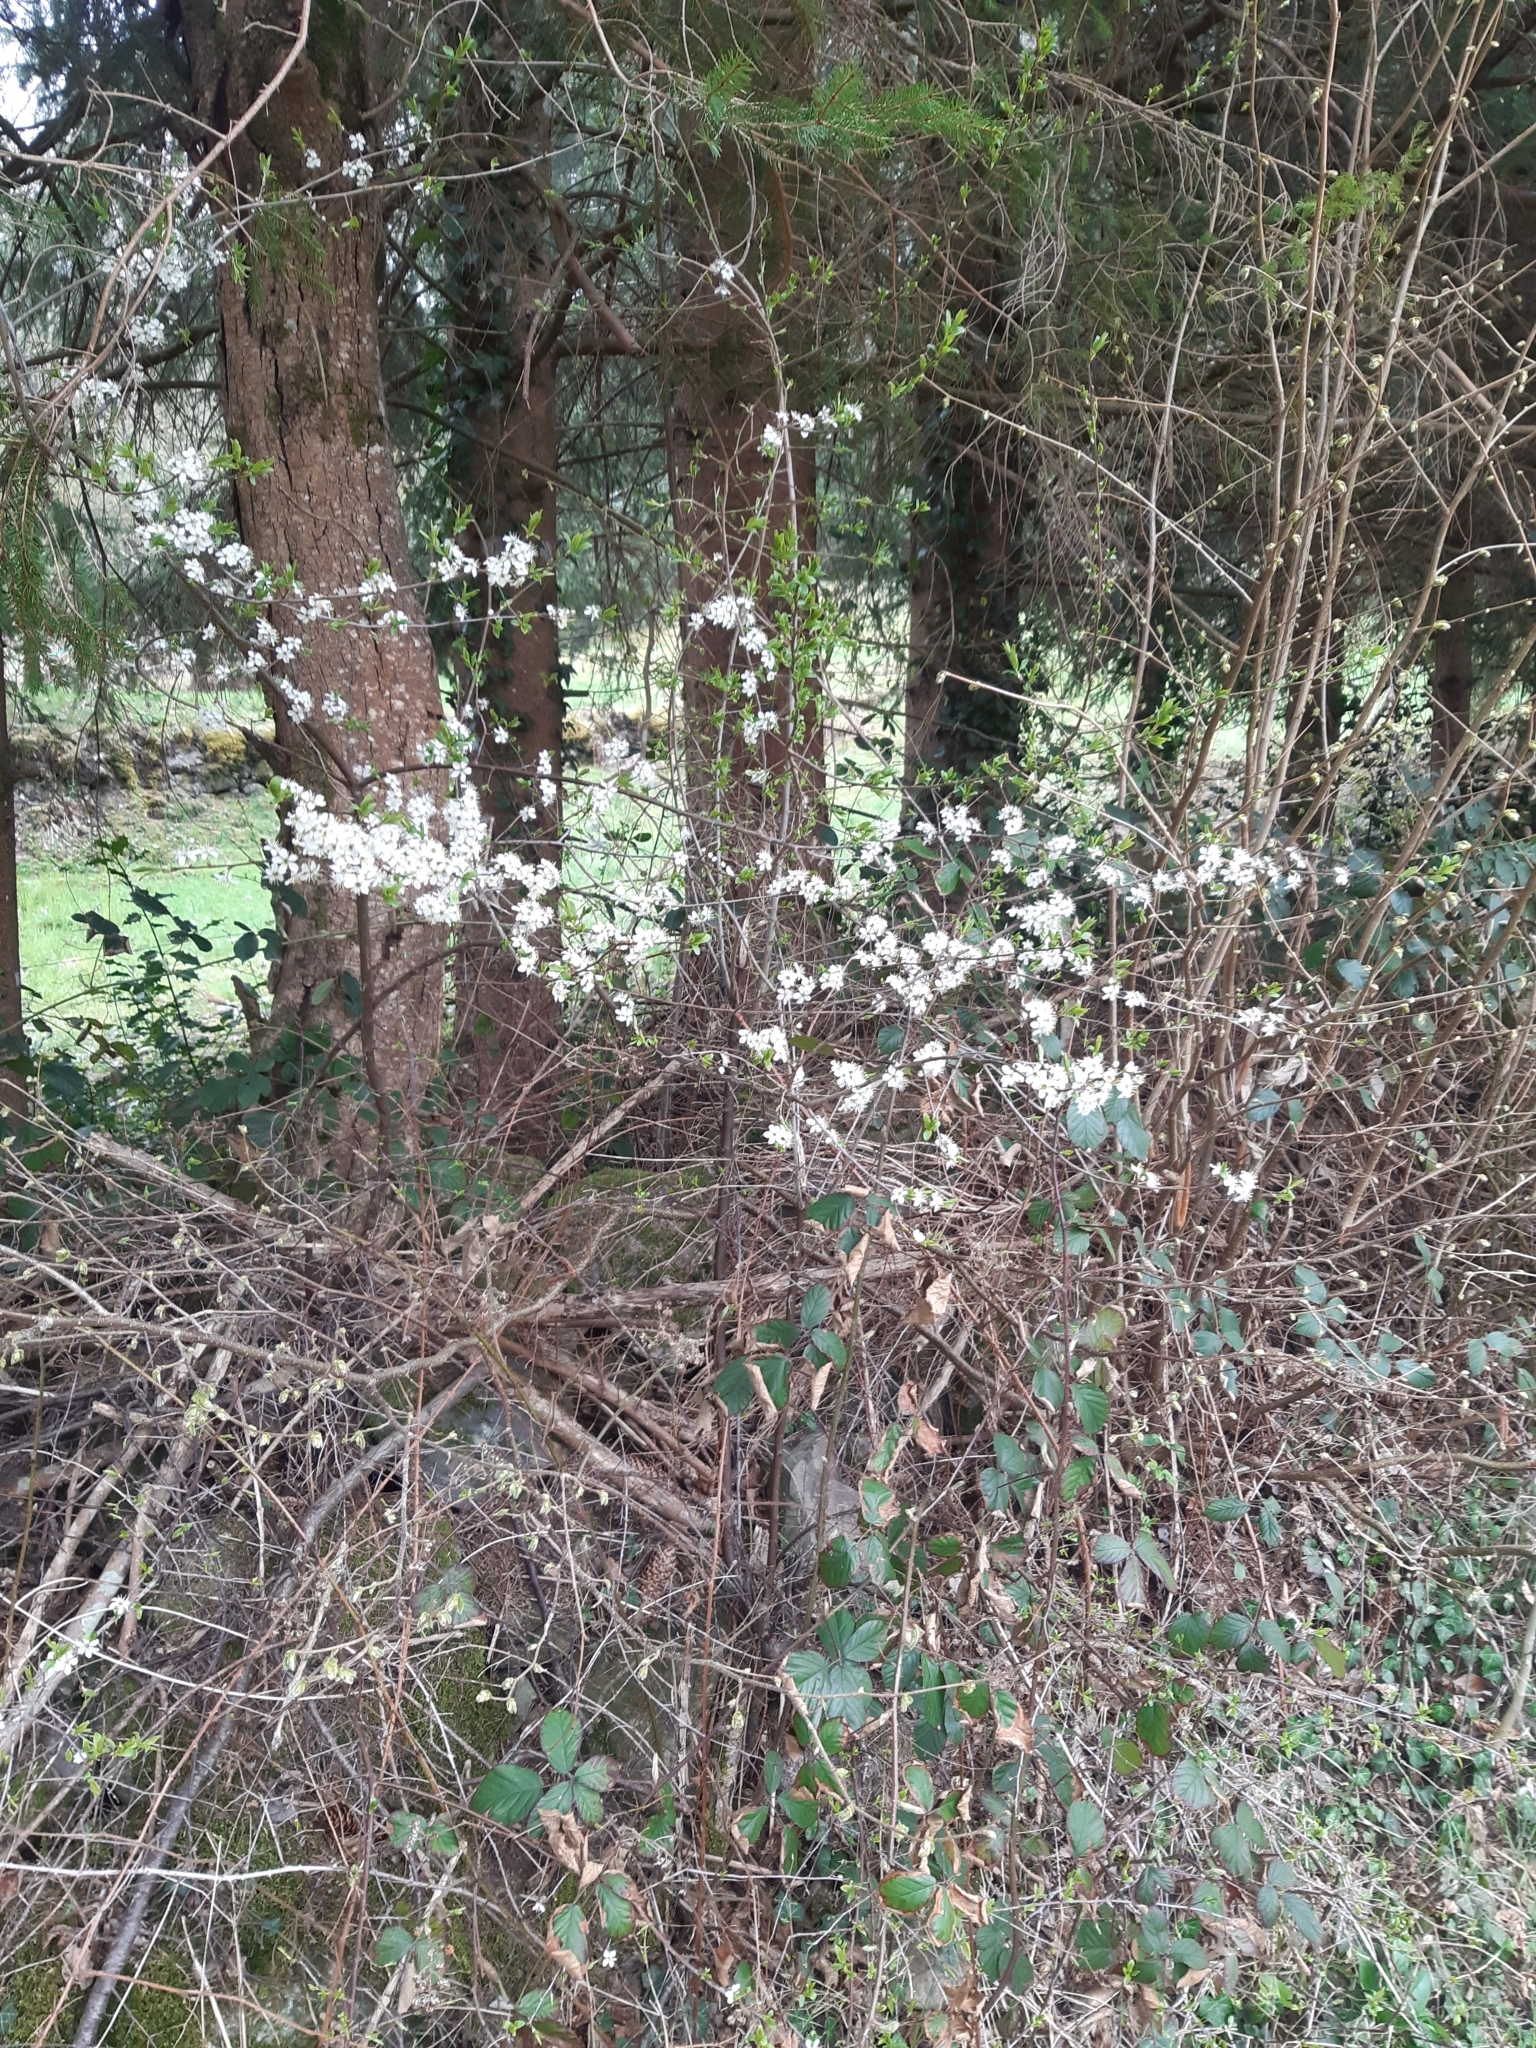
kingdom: Plantae
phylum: Tracheophyta
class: Magnoliopsida
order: Rosales
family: Rosaceae
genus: Prunus
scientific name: Prunus spinosa
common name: Blackthorn
